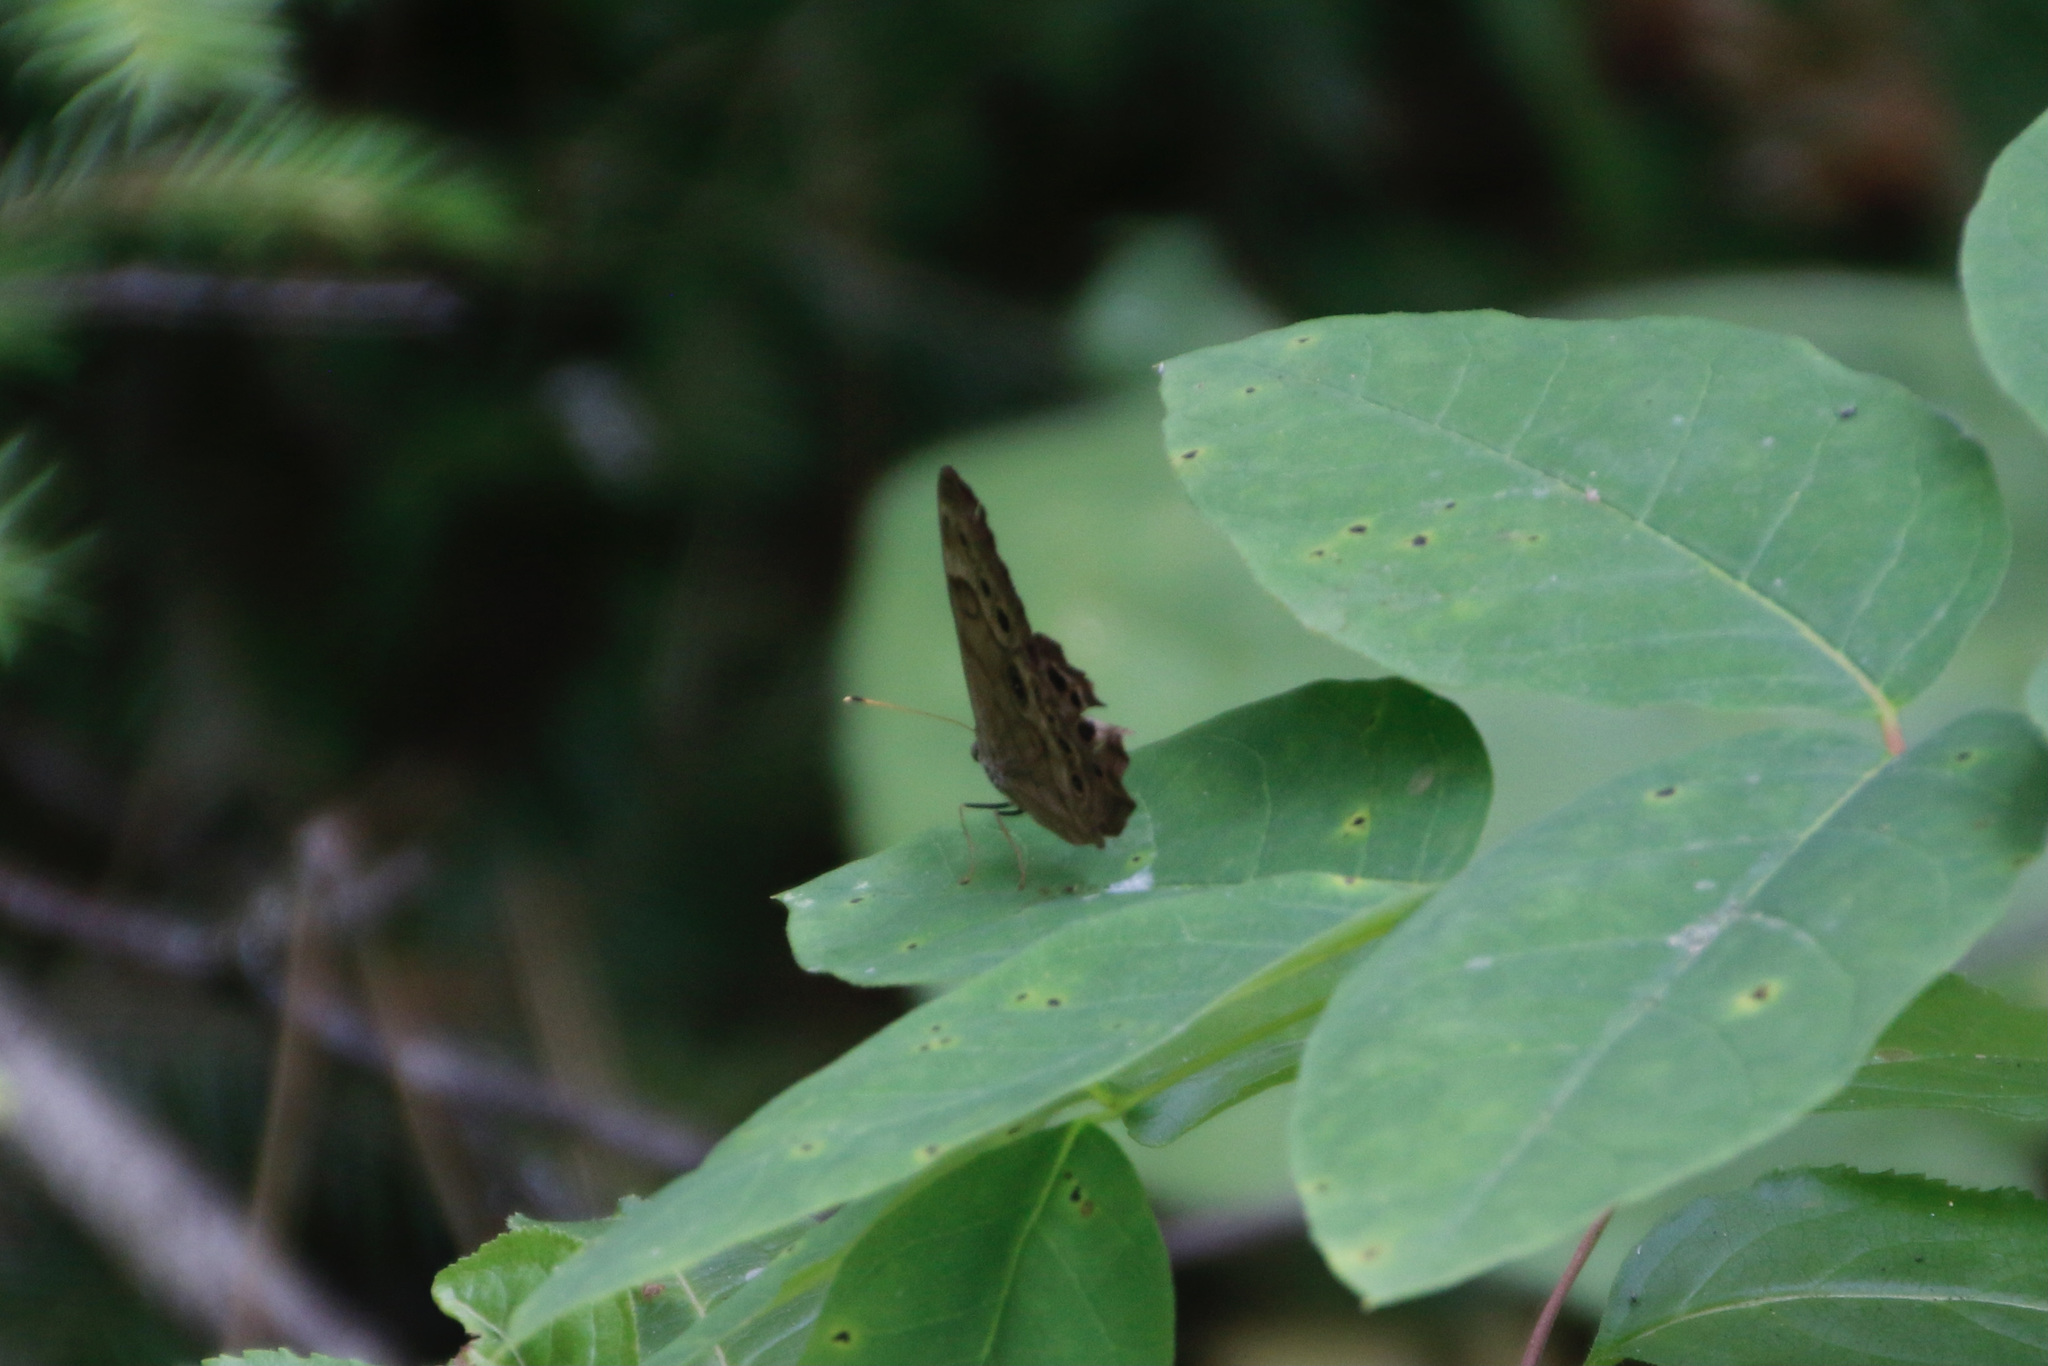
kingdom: Animalia
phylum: Arthropoda
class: Insecta
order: Lepidoptera
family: Nymphalidae
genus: Lethe
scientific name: Lethe anthedon
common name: Northern pearly-eye
